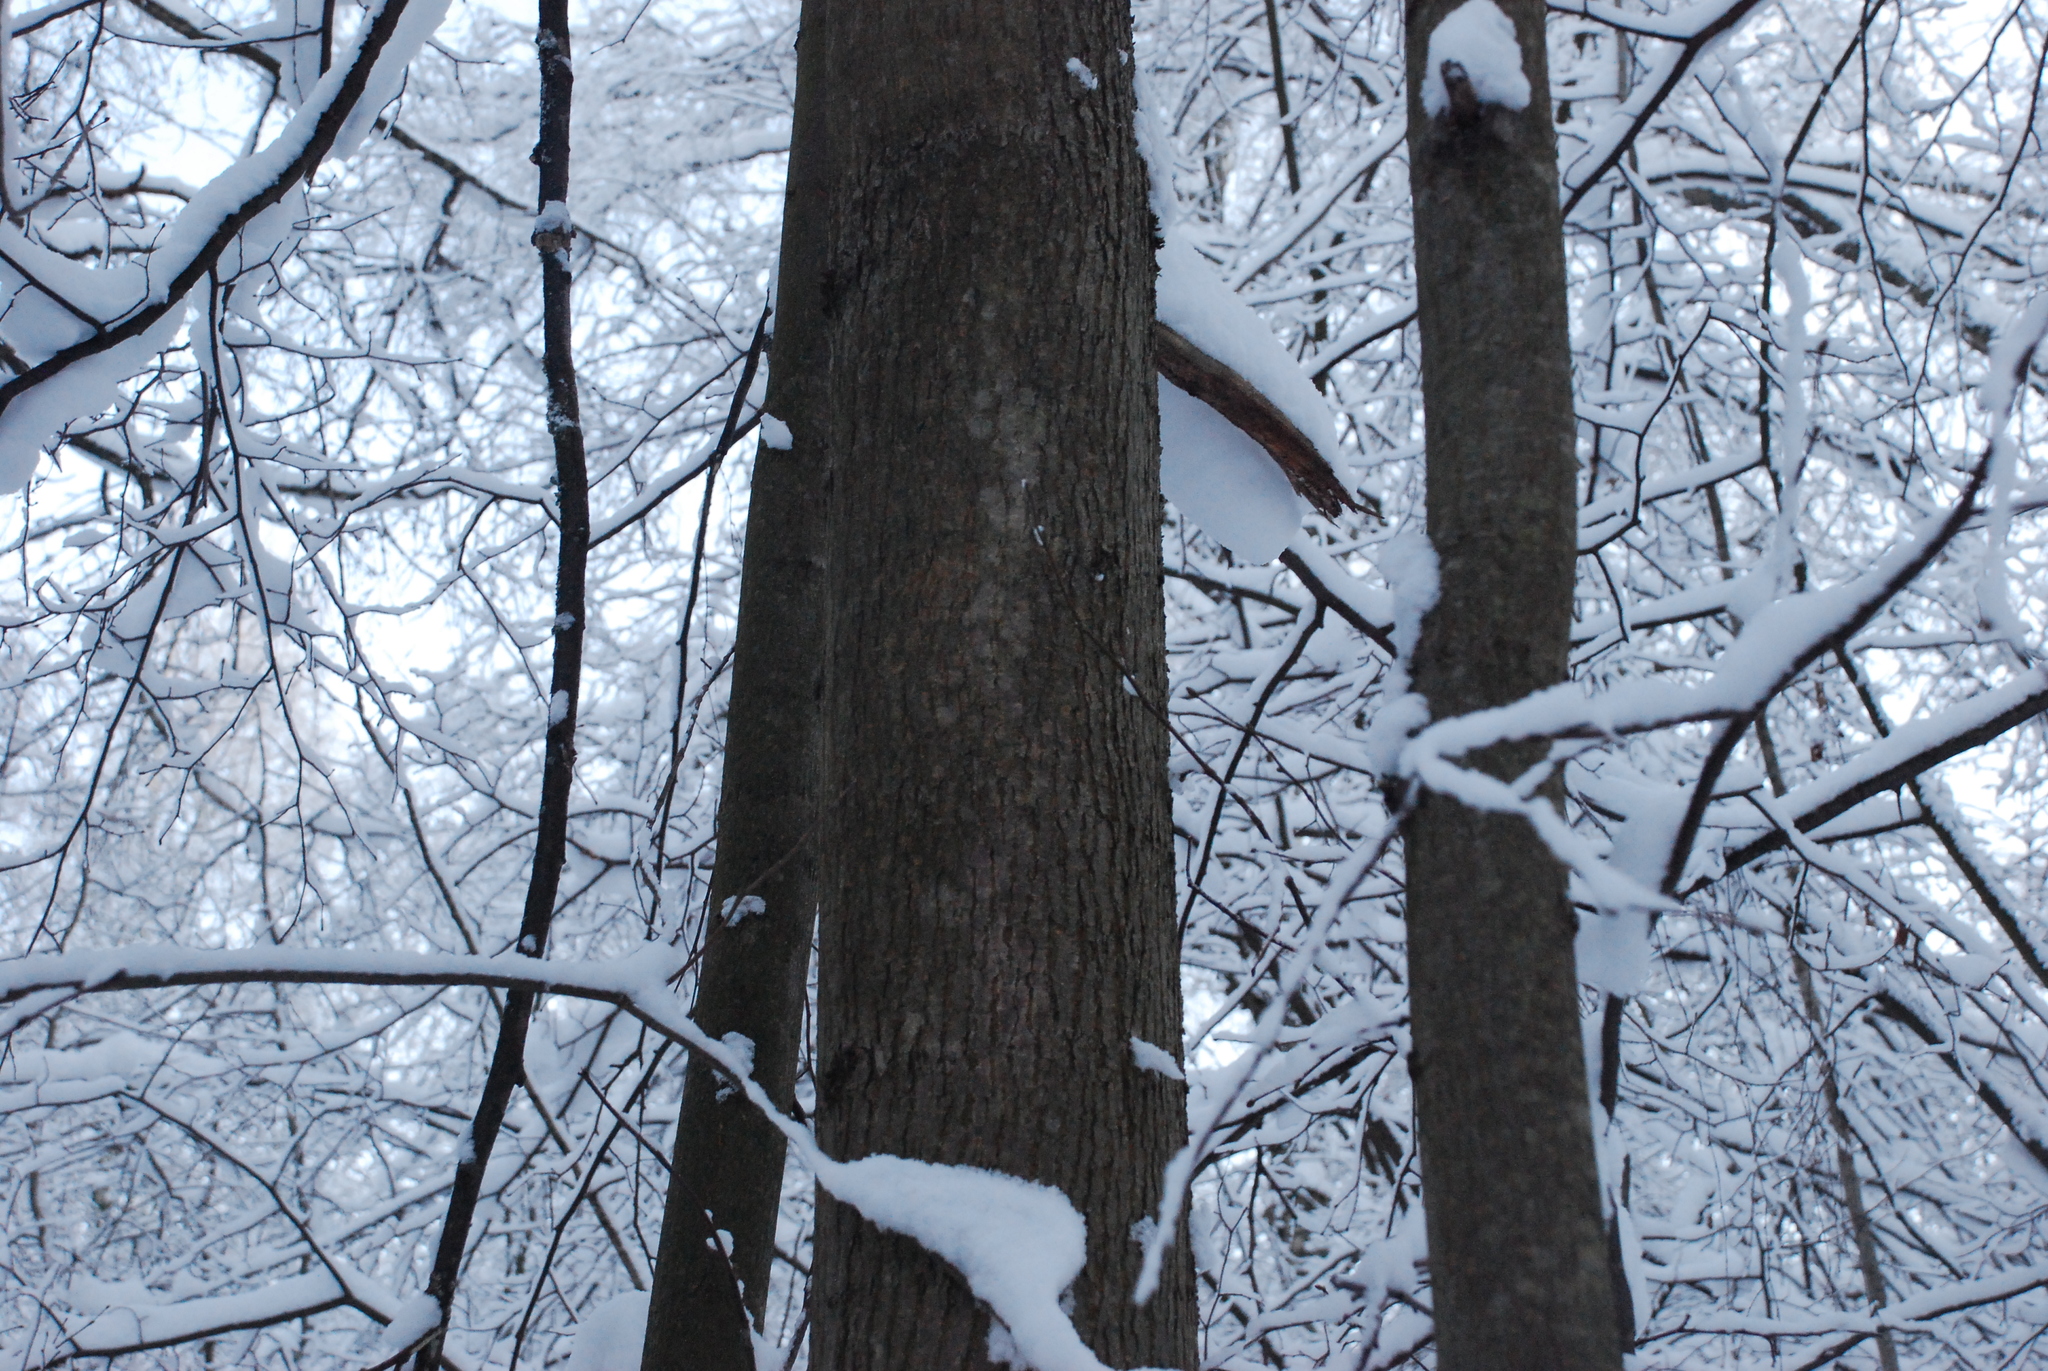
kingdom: Plantae
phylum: Tracheophyta
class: Magnoliopsida
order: Malpighiales
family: Salicaceae
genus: Populus
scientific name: Populus tremula
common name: European aspen
